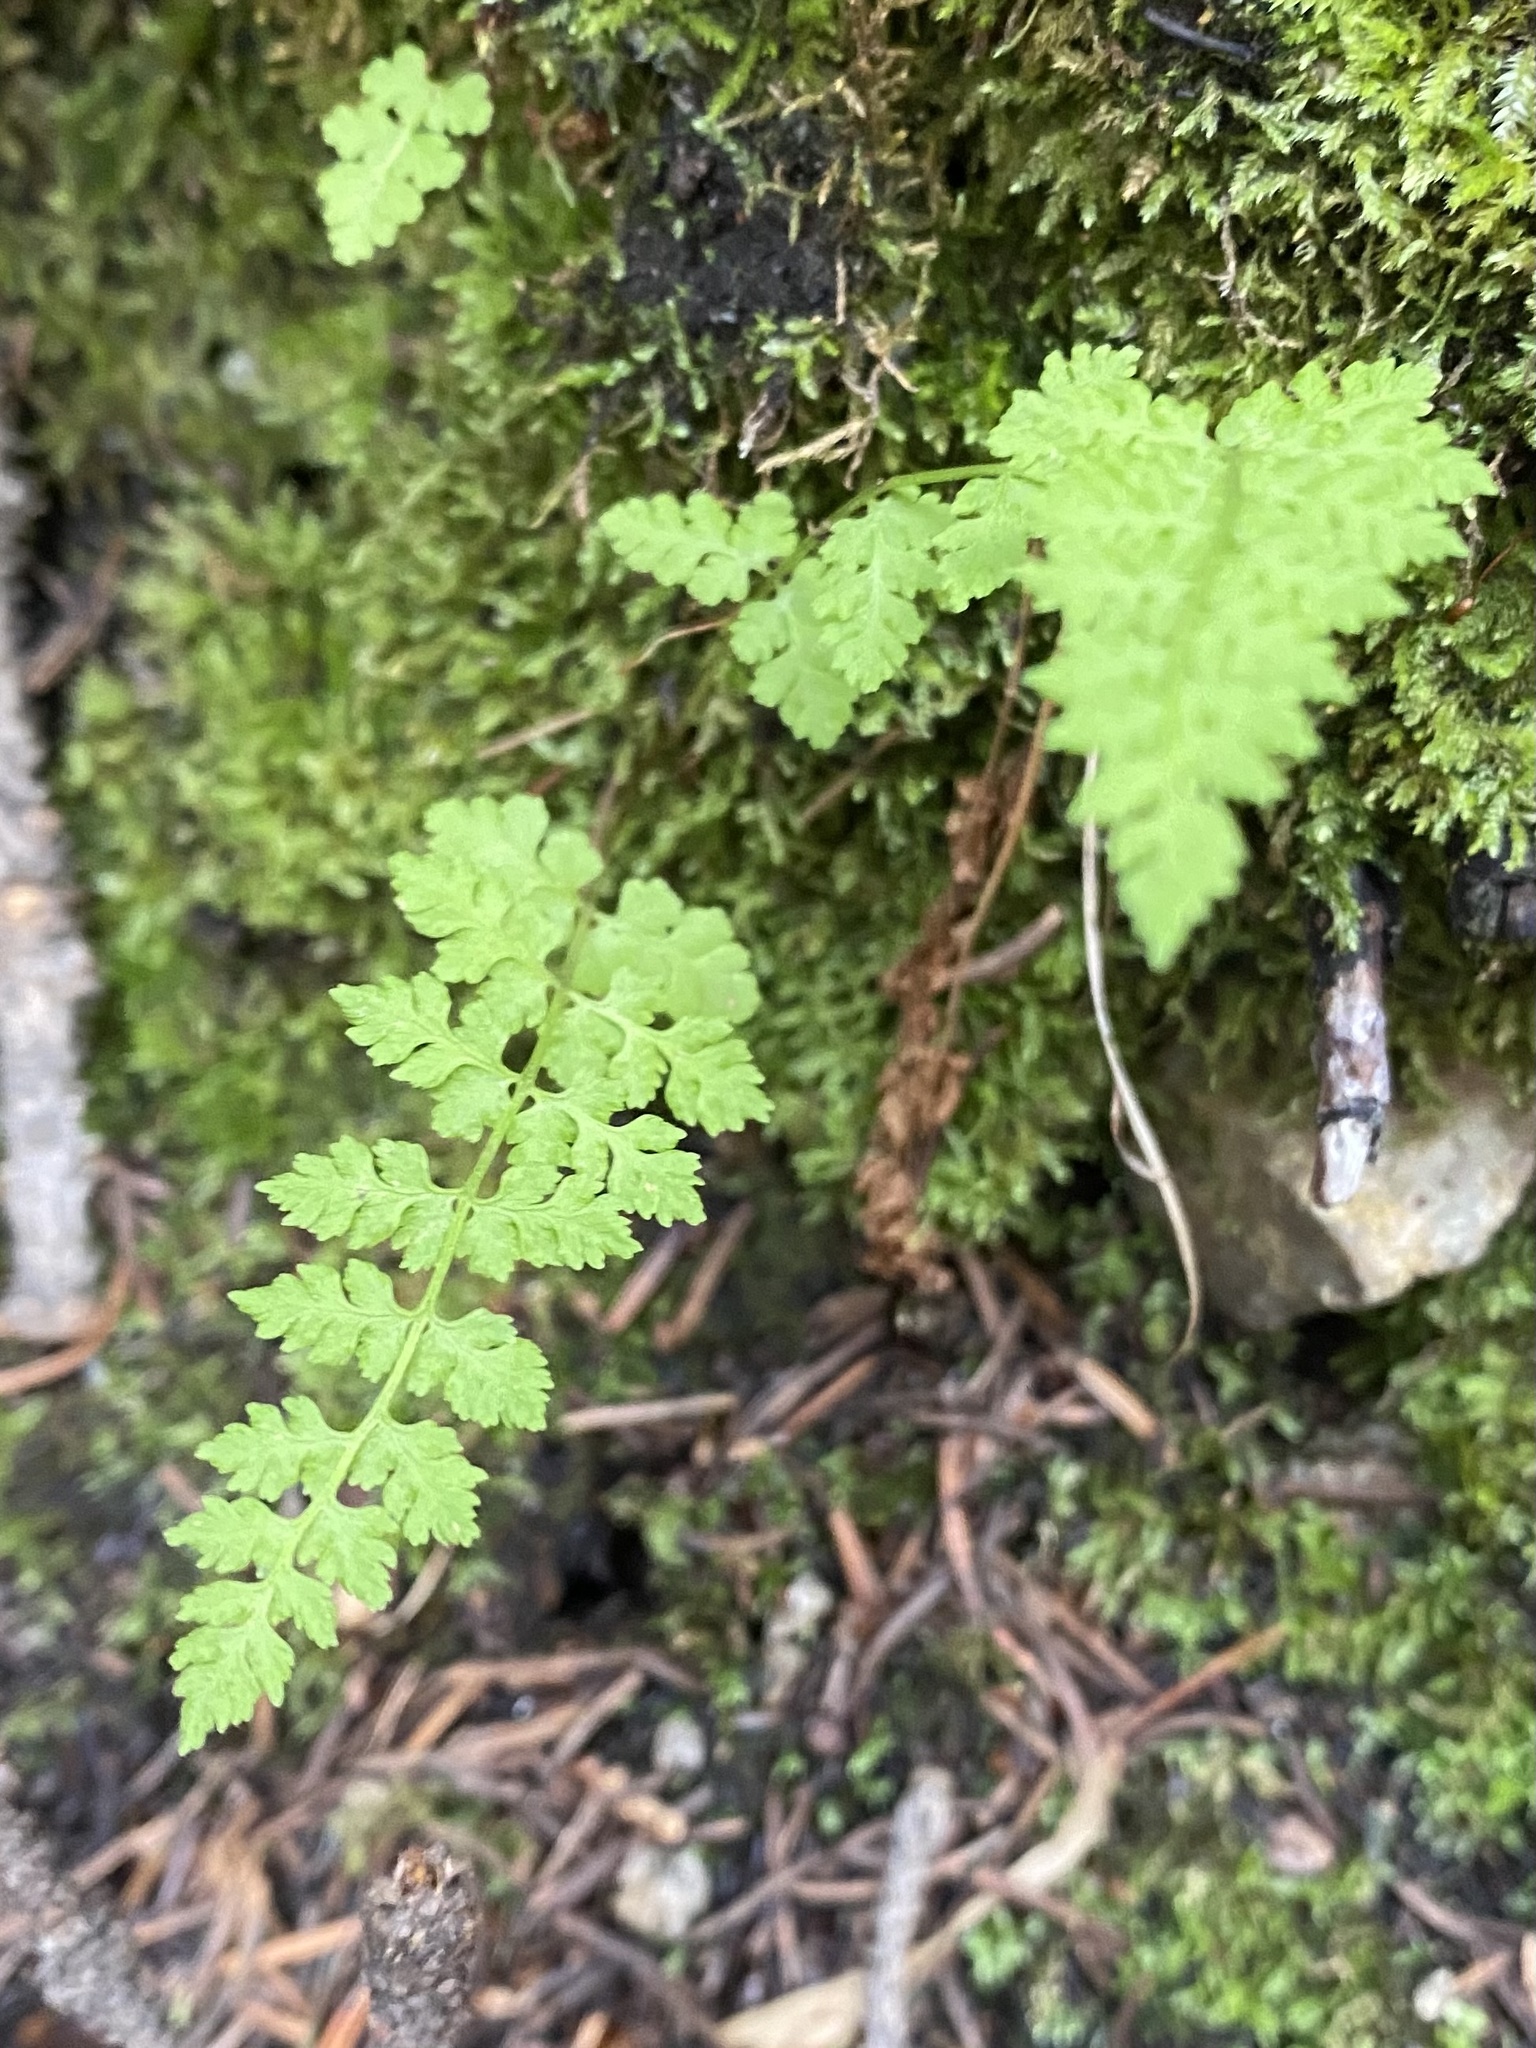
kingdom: Plantae
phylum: Tracheophyta
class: Polypodiopsida
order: Polypodiales
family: Cystopteridaceae
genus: Cystopteris
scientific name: Cystopteris fragilis
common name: Brittle bladder fern
